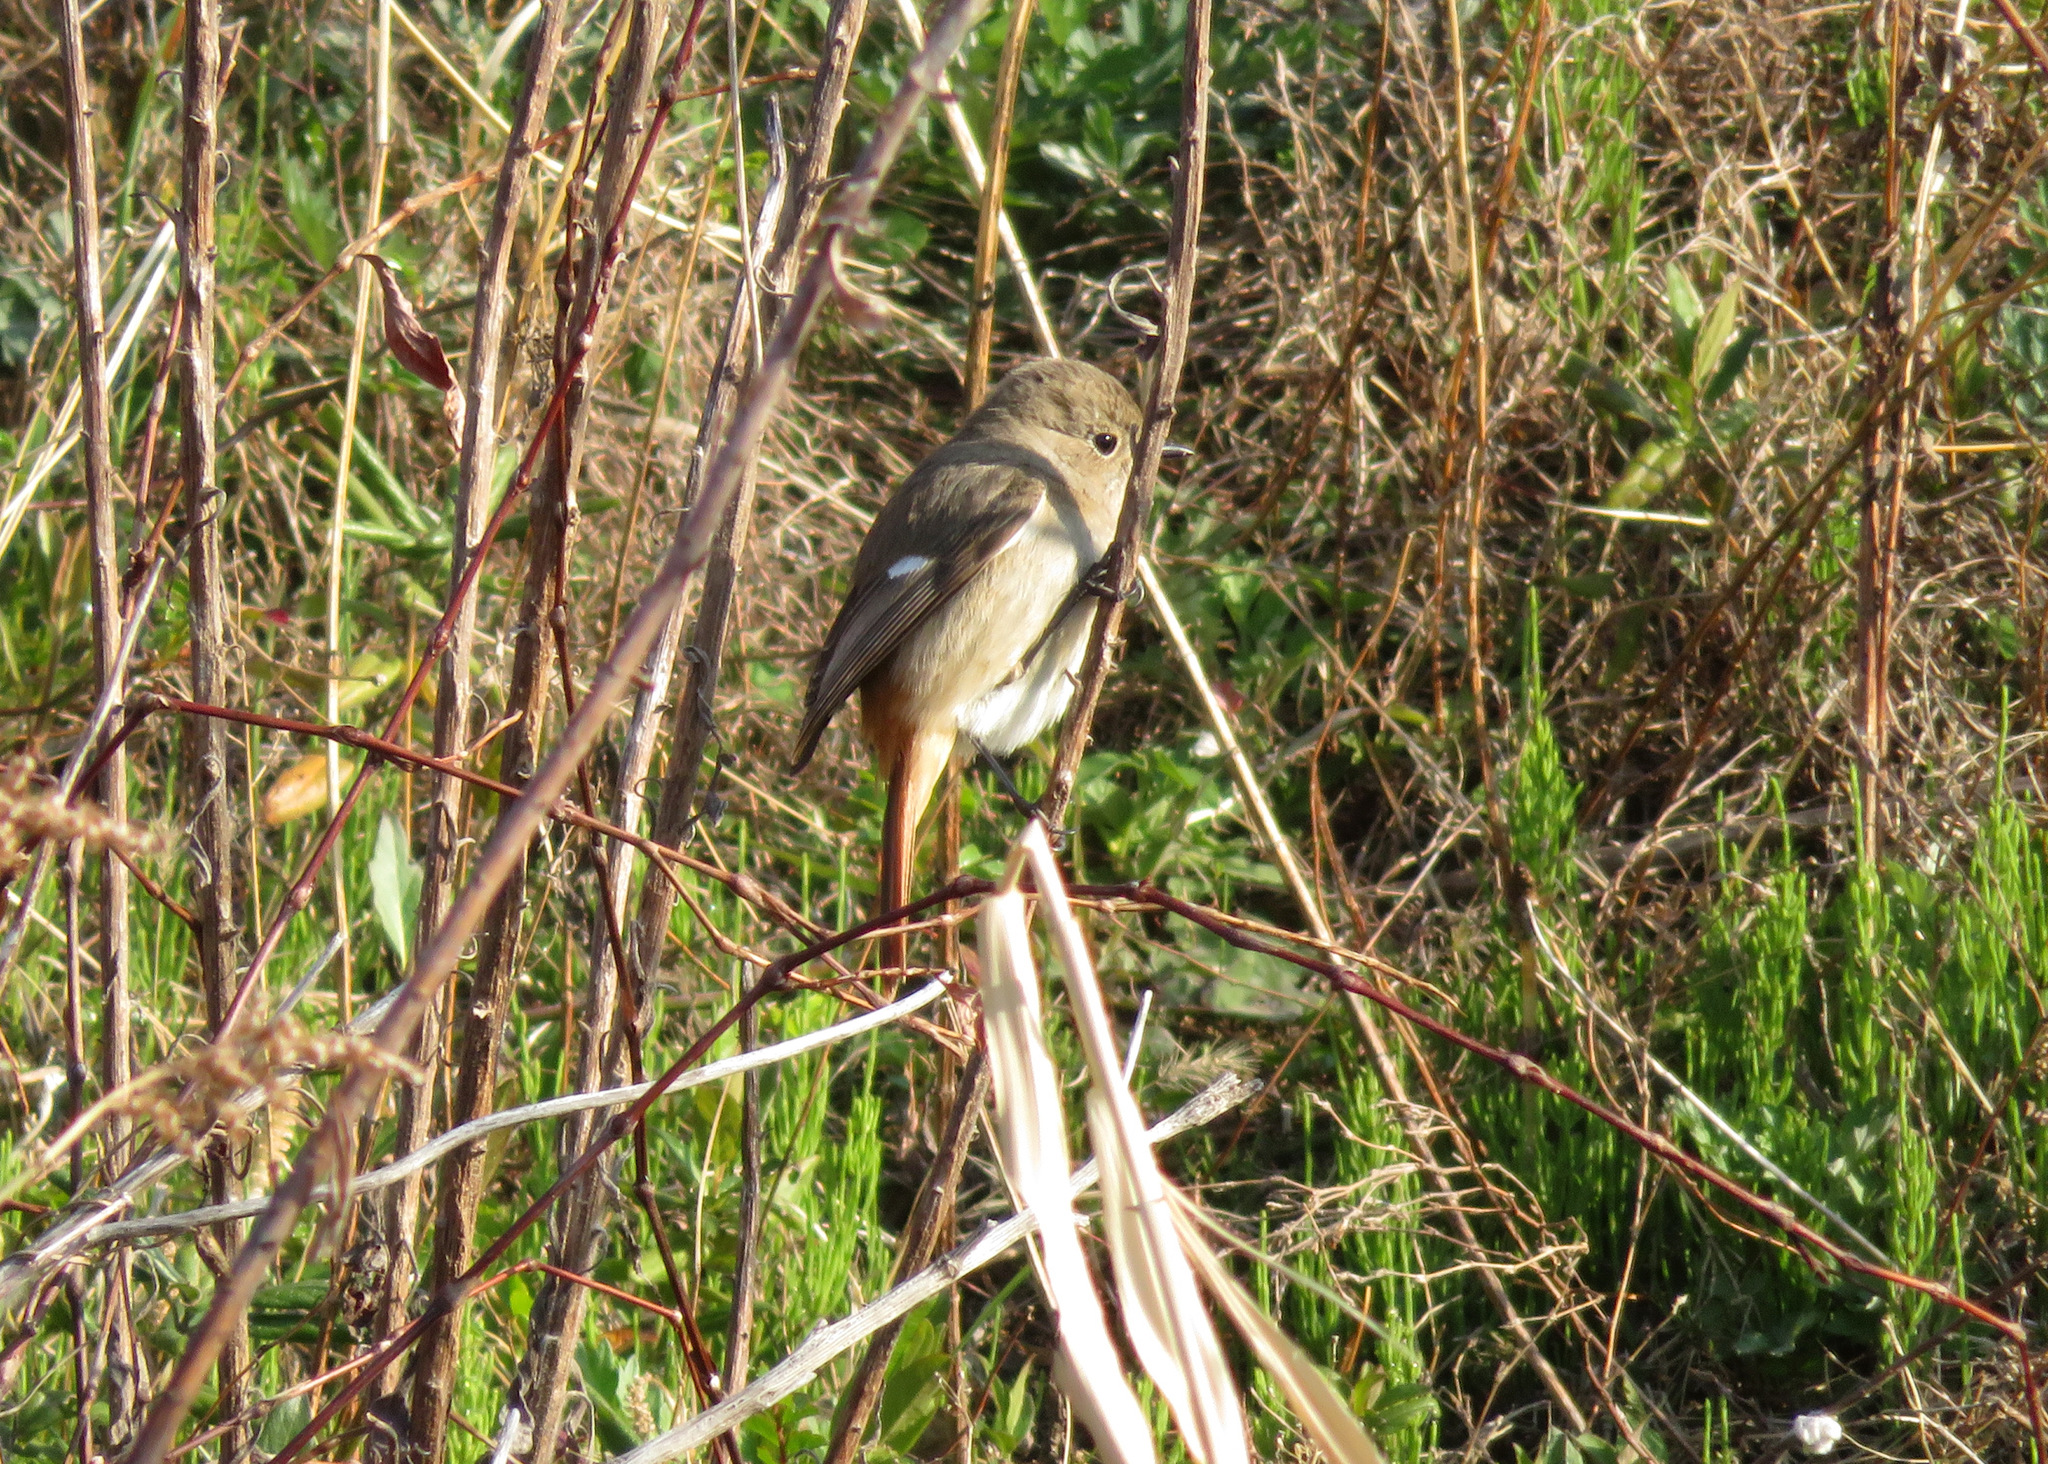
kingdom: Animalia
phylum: Chordata
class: Aves
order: Passeriformes
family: Muscicapidae
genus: Phoenicurus
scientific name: Phoenicurus auroreus
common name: Daurian redstart
